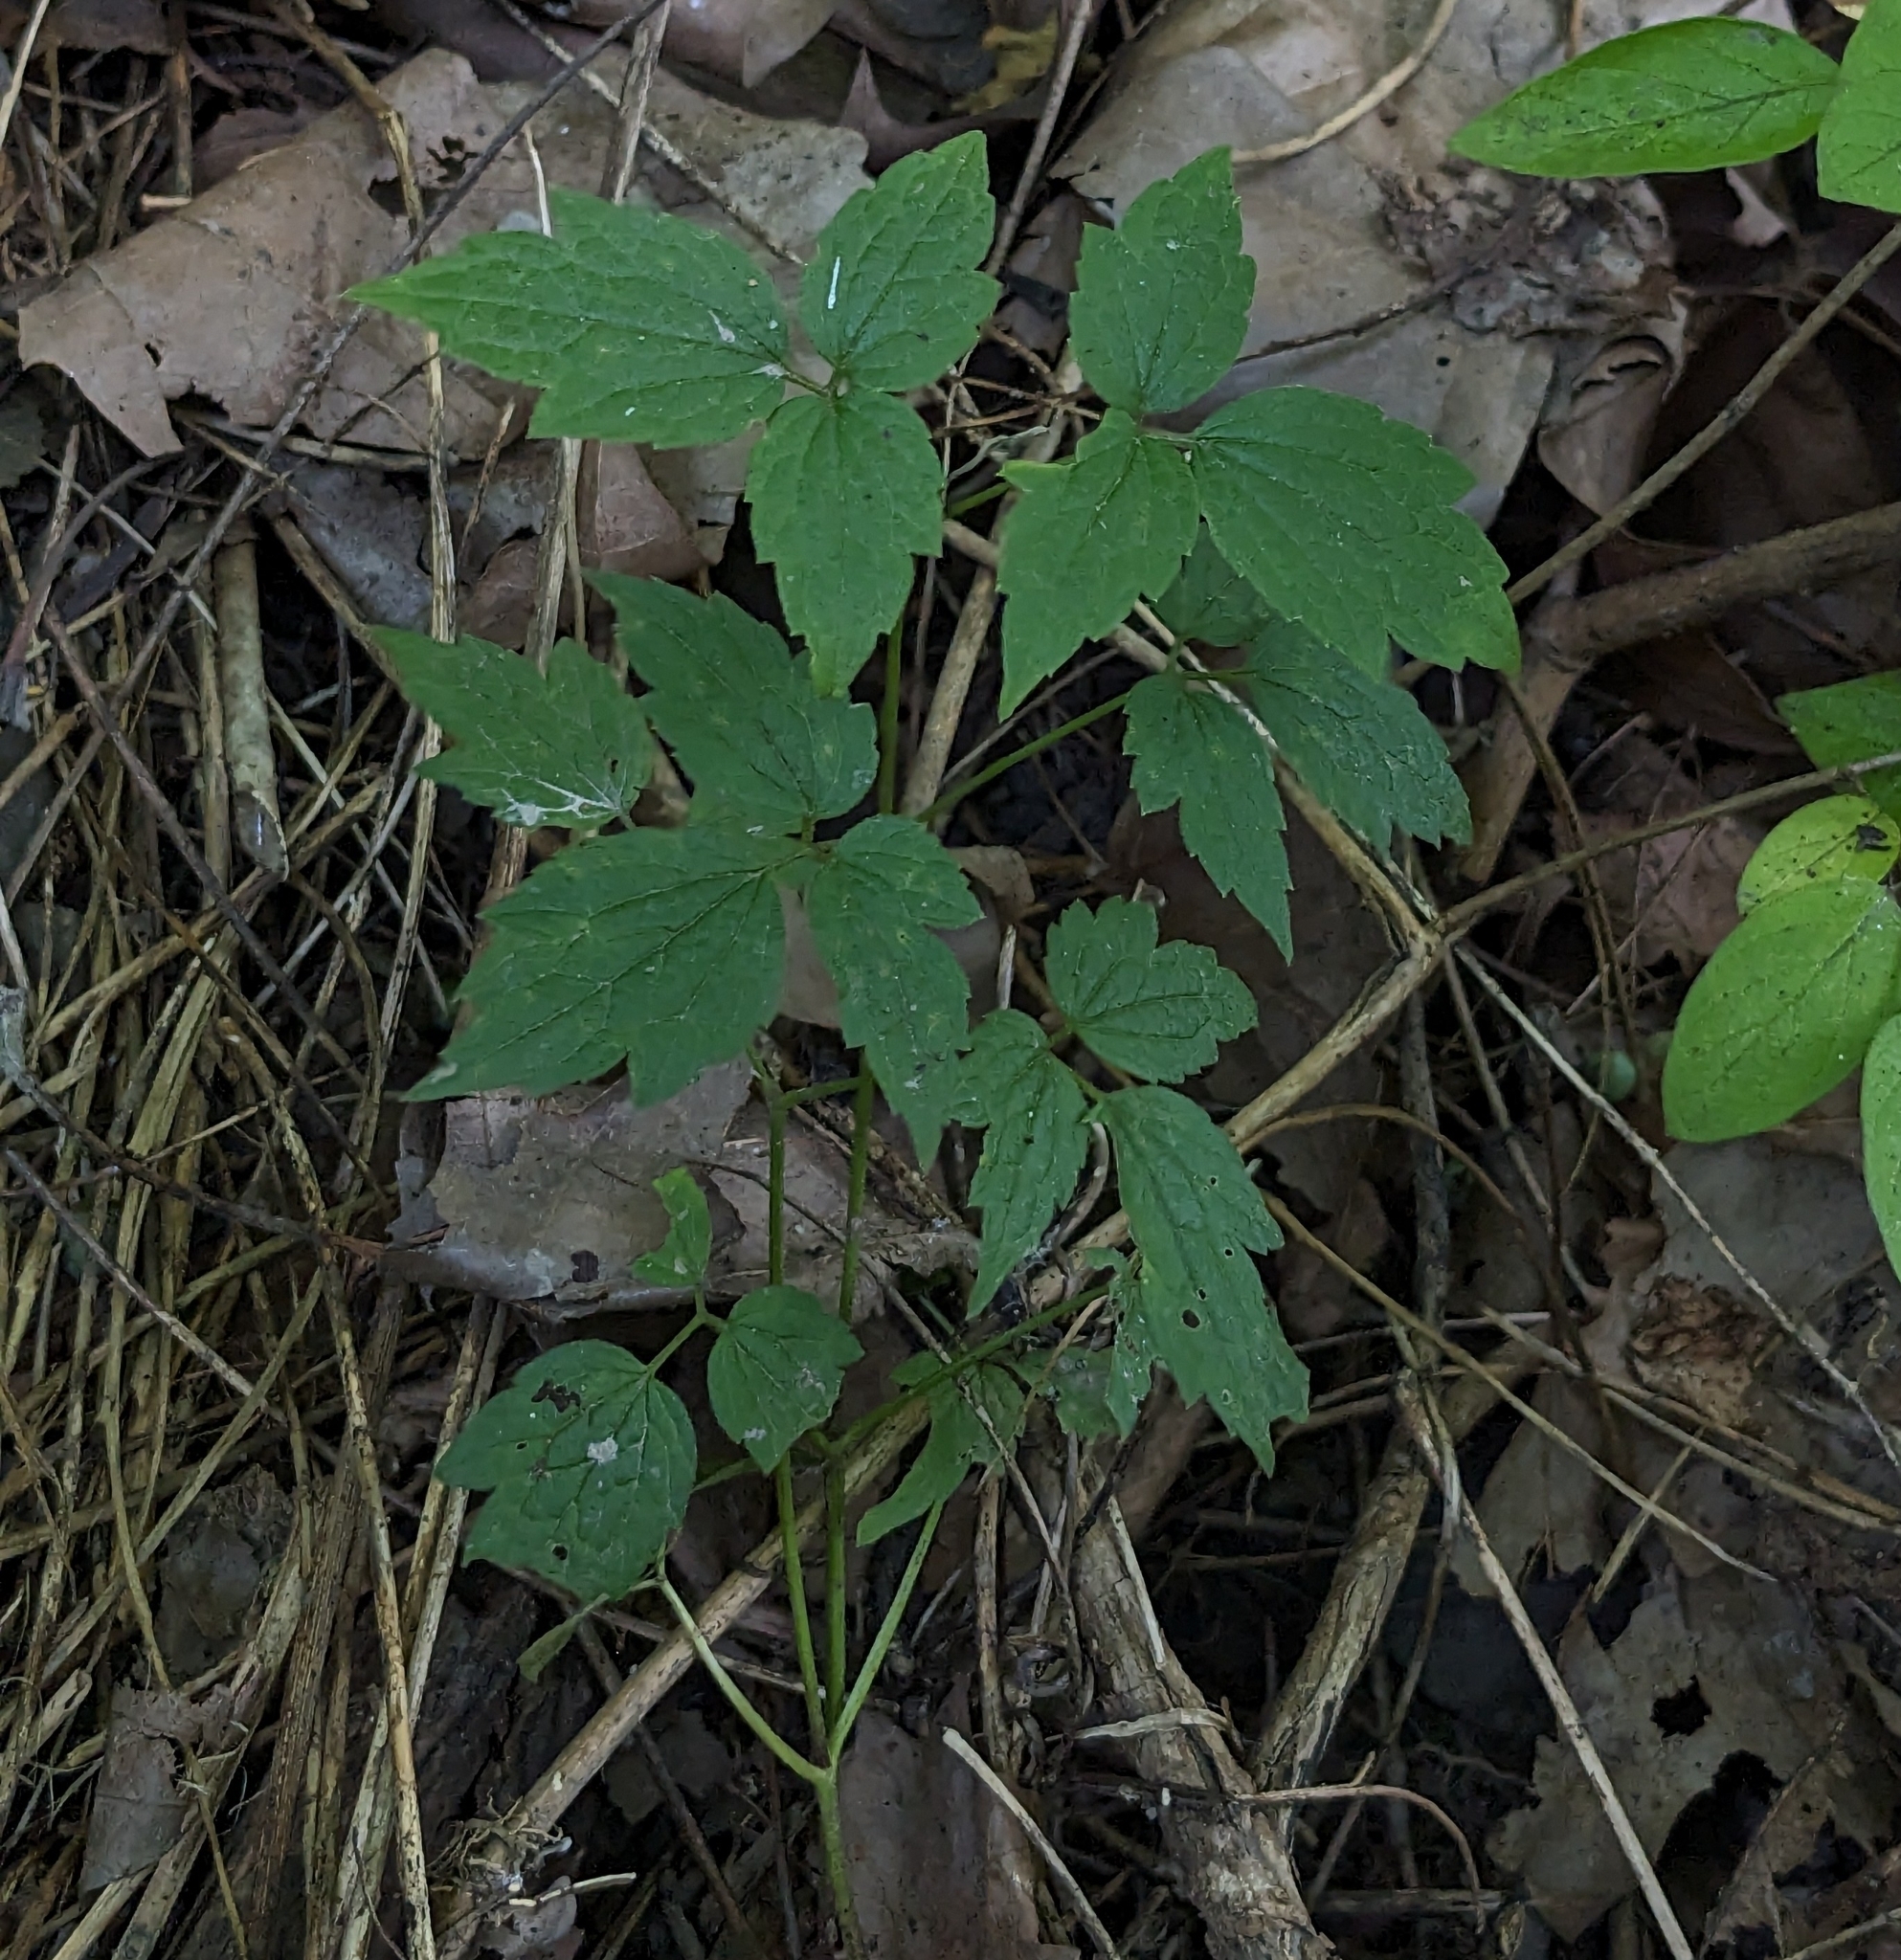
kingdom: Plantae
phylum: Tracheophyta
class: Magnoliopsida
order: Ranunculales
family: Ranunculaceae
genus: Clematis
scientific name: Clematis virginiana
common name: Virgin's-bower
